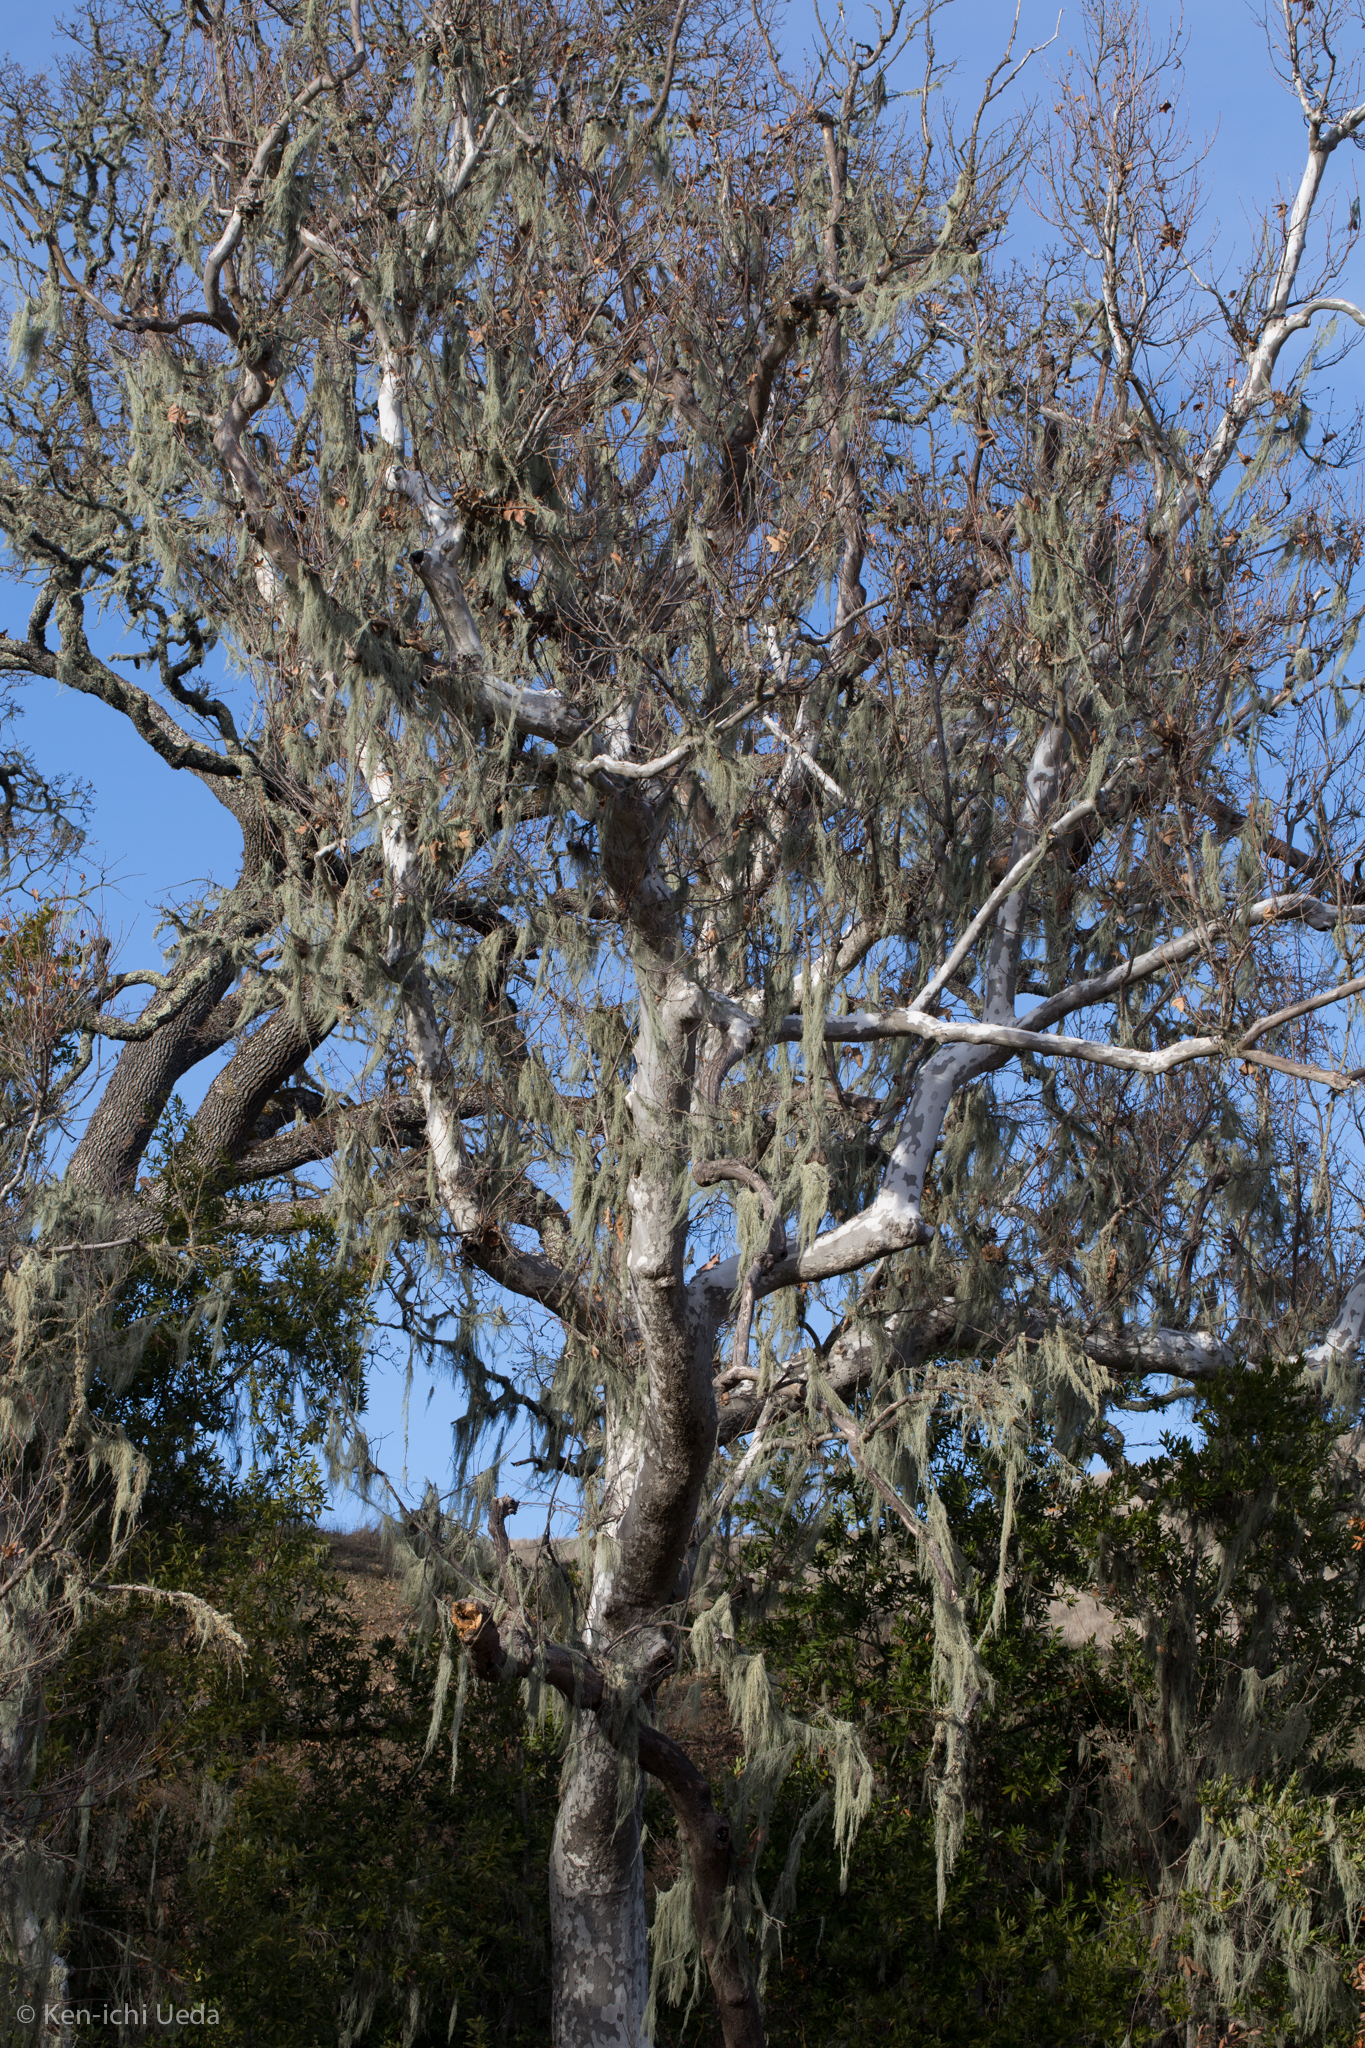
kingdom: Plantae
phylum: Tracheophyta
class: Magnoliopsida
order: Proteales
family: Platanaceae
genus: Platanus
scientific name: Platanus racemosa
